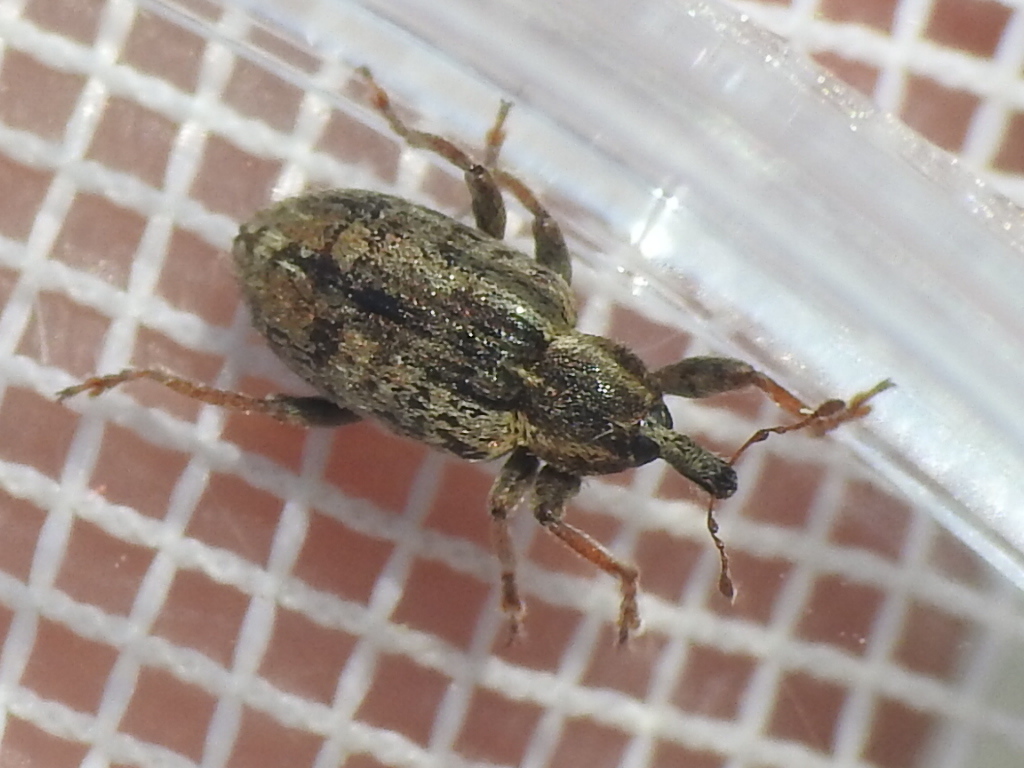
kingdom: Animalia
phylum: Arthropoda
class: Insecta
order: Coleoptera
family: Curculionidae
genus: Hypera
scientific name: Hypera postica
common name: Weevil
